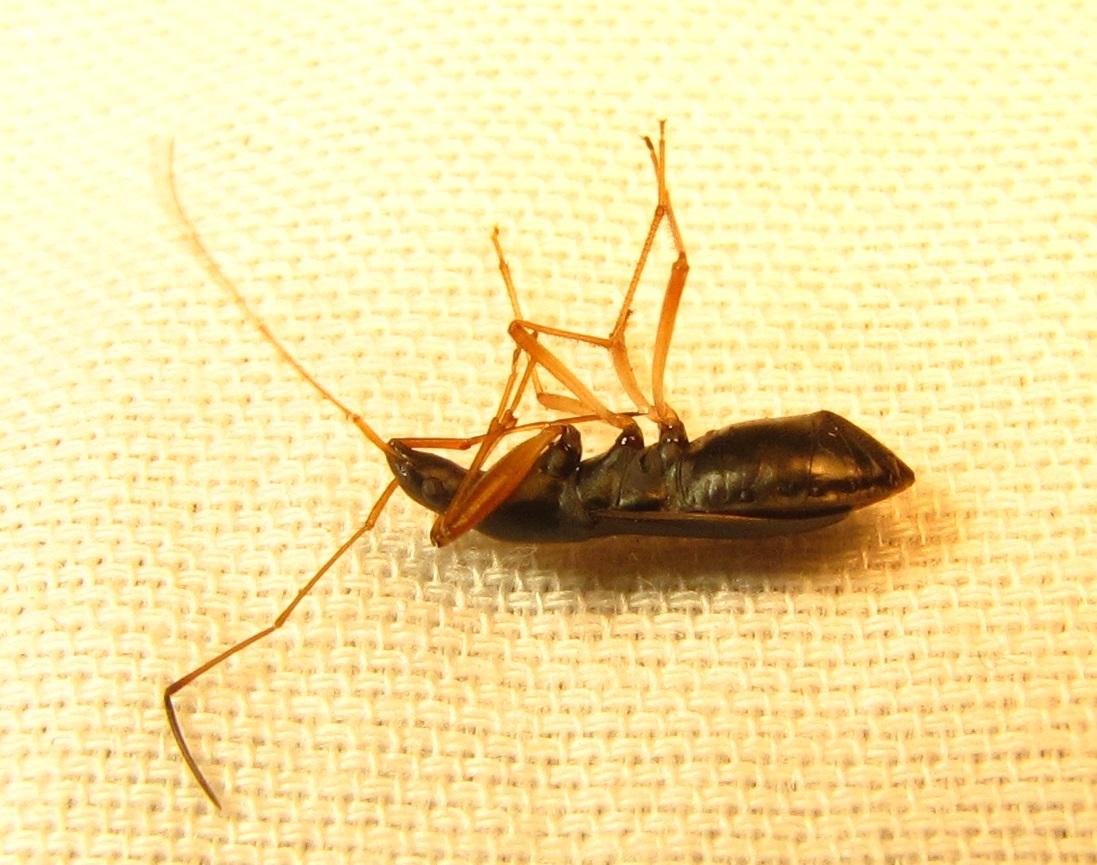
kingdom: Animalia
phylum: Arthropoda
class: Insecta
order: Hemiptera
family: Rhyparochromidae
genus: Cnemodus
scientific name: Cnemodus mavortius
